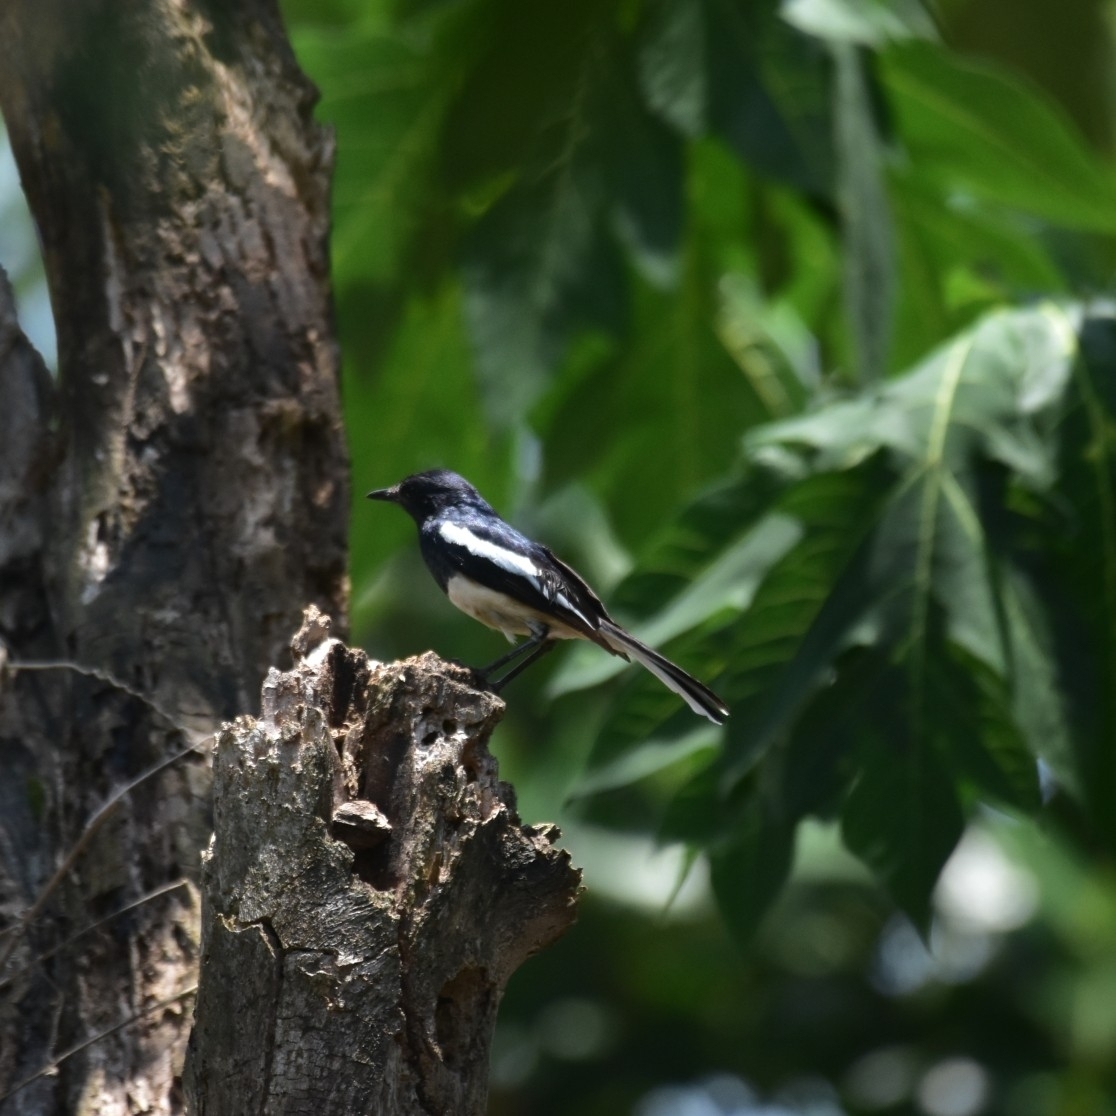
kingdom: Animalia
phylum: Chordata
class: Aves
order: Passeriformes
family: Muscicapidae
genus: Copsychus
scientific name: Copsychus saularis
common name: Oriental magpie-robin
